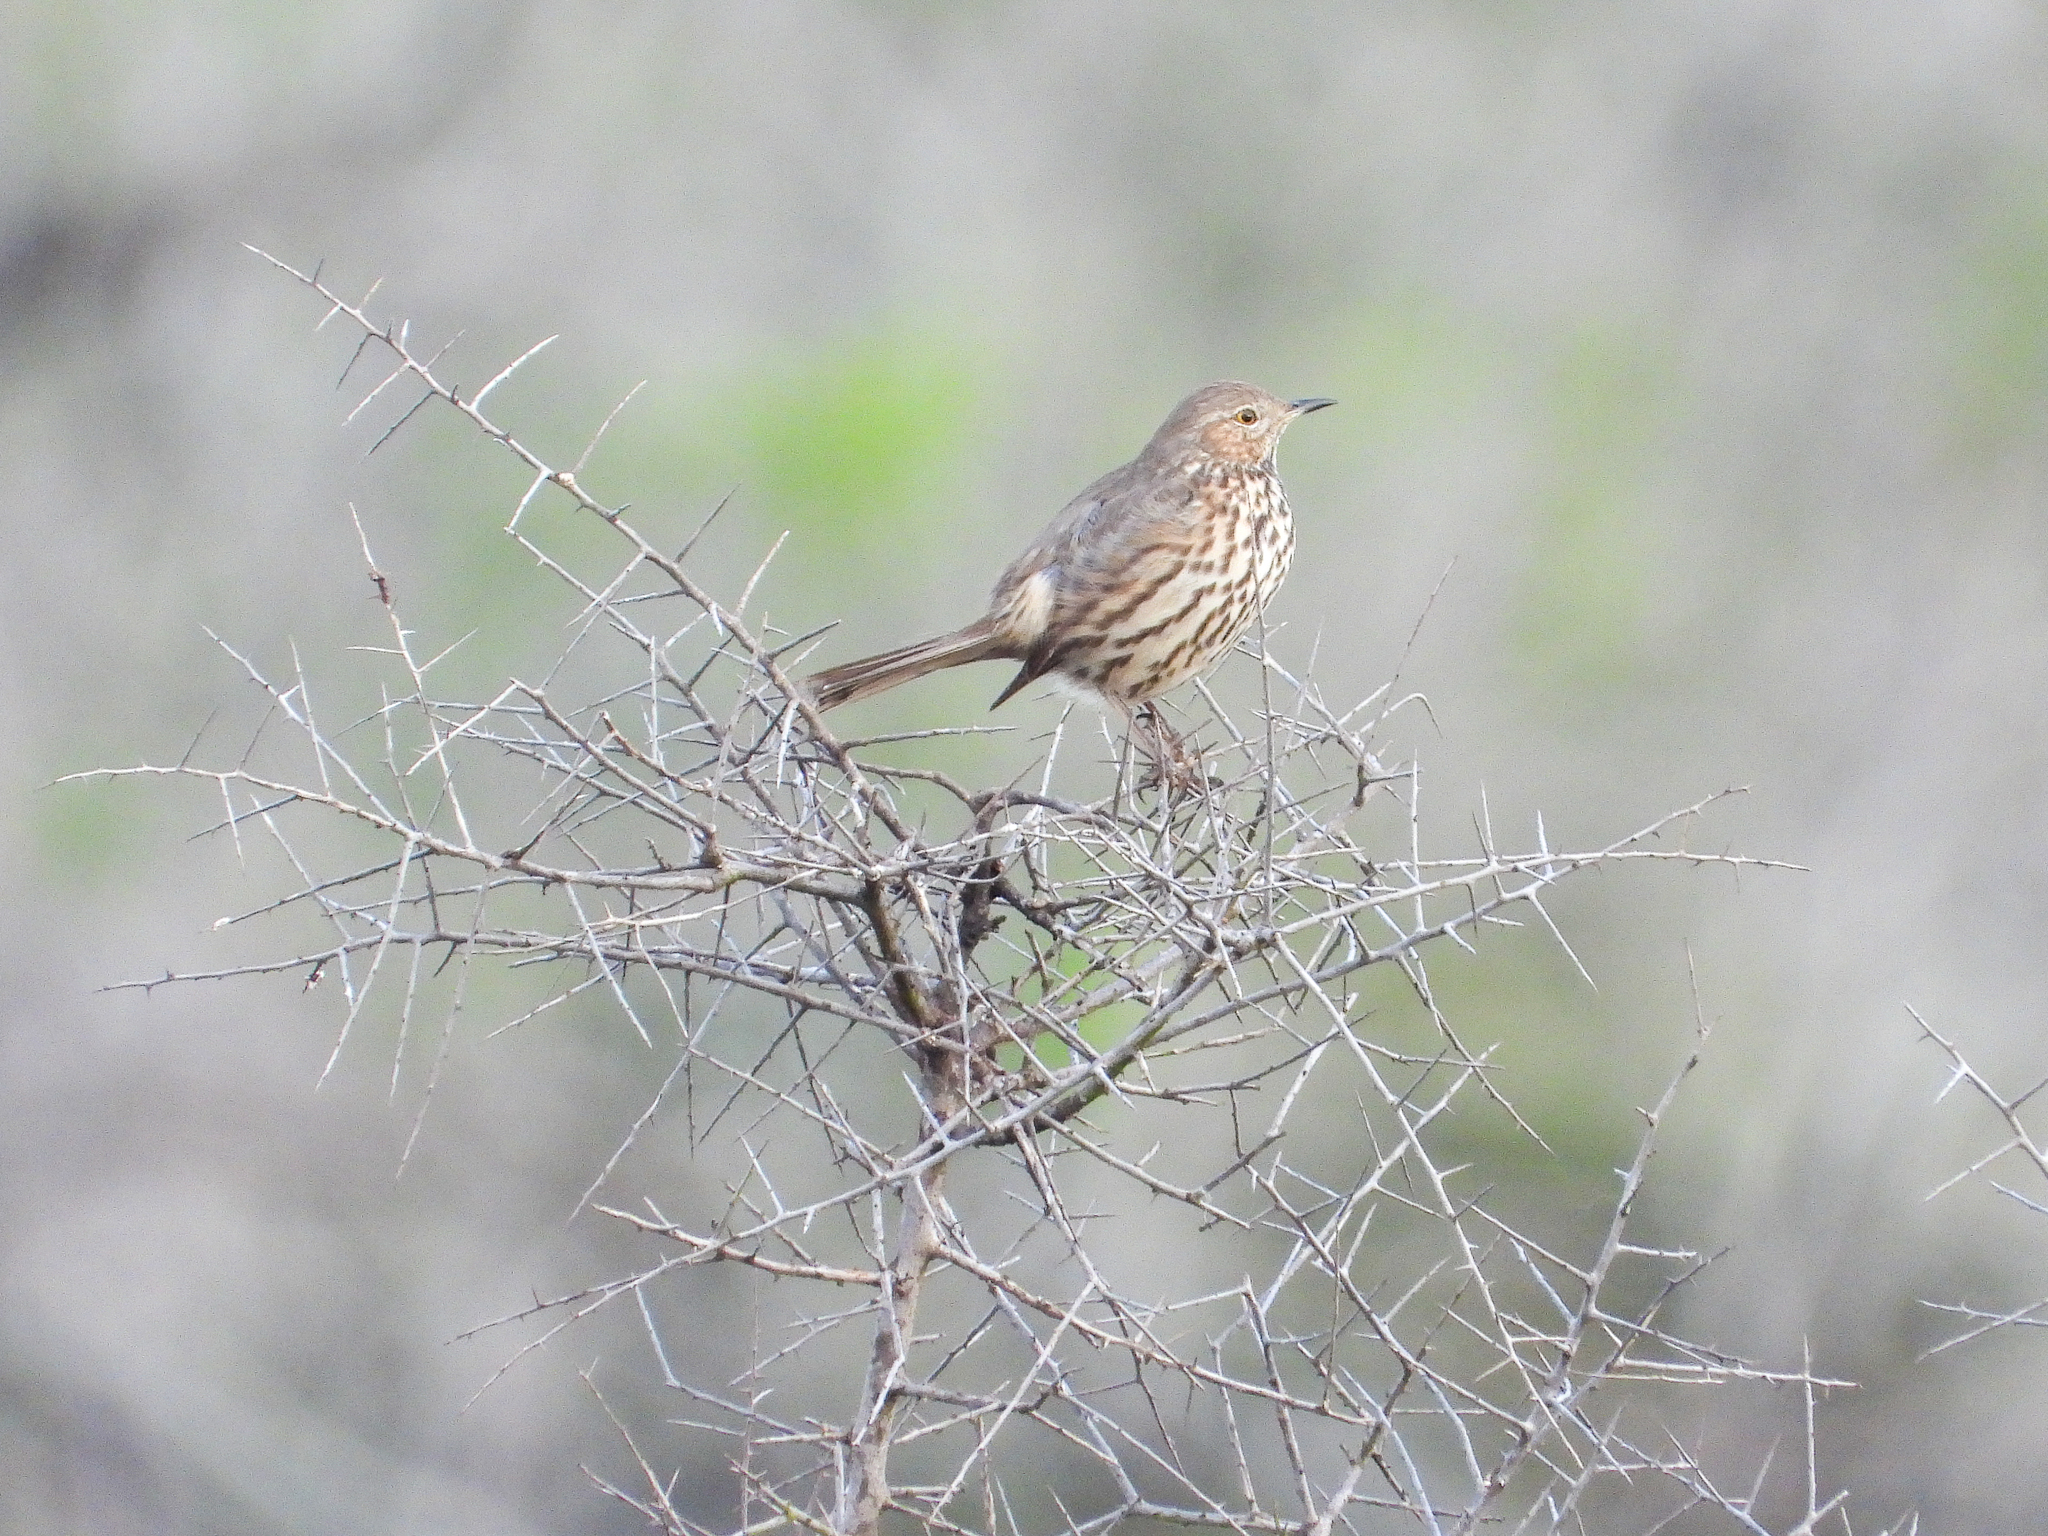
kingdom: Animalia
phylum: Chordata
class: Aves
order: Passeriformes
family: Mimidae
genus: Oreoscoptes
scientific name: Oreoscoptes montanus
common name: Sage thrasher
